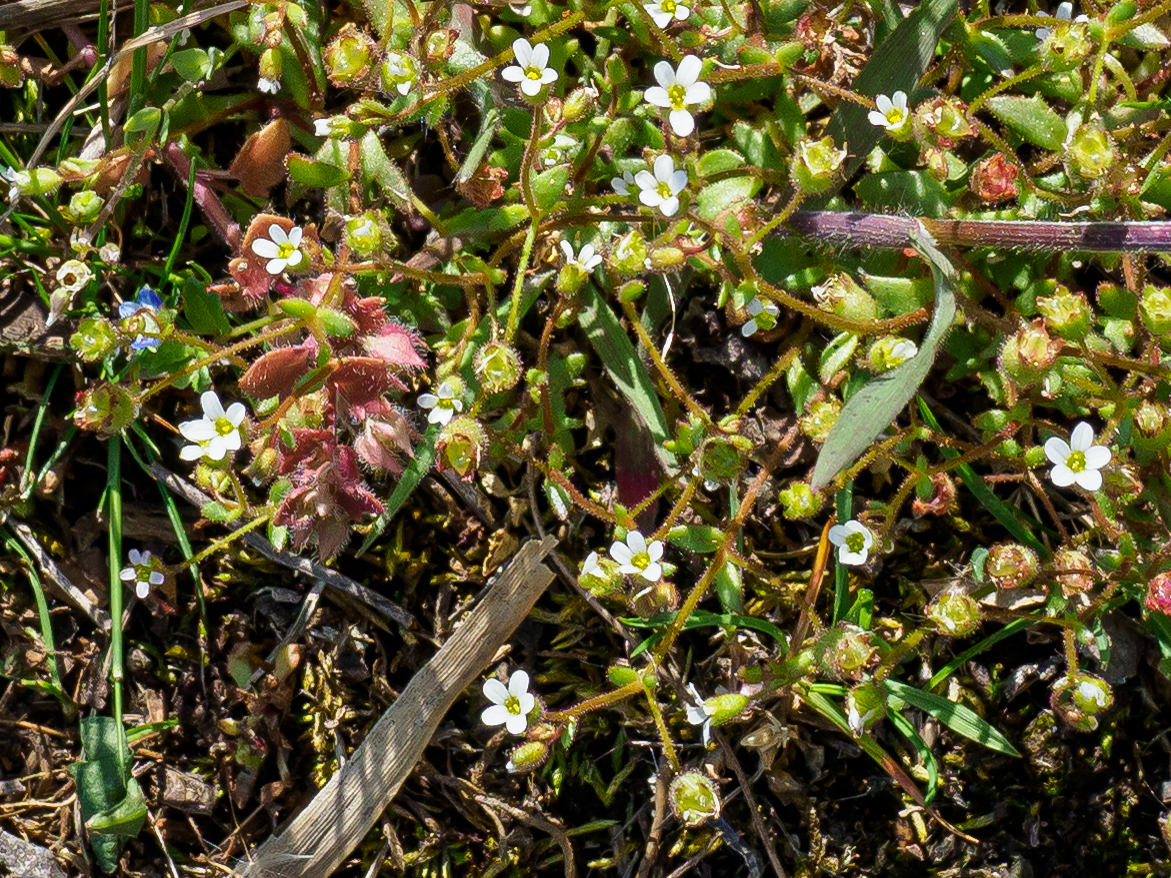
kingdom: Plantae
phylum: Tracheophyta
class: Magnoliopsida
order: Saxifragales
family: Saxifragaceae
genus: Saxifraga
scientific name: Saxifraga tridactylites
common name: Rue-leaved saxifrage
